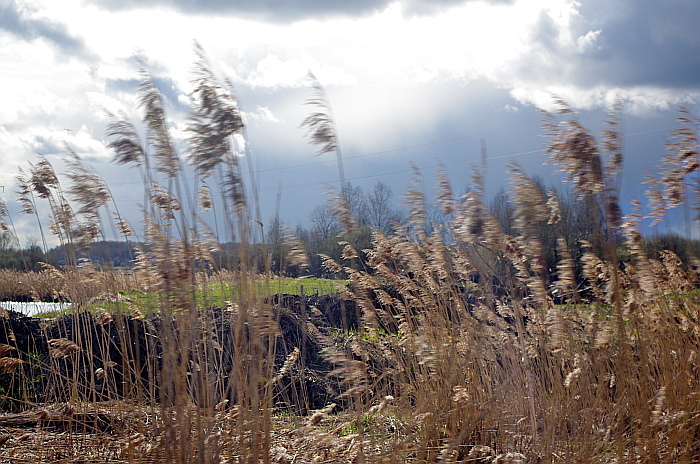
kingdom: Plantae
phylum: Tracheophyta
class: Liliopsida
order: Poales
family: Poaceae
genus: Phragmites
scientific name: Phragmites australis
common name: Common reed
